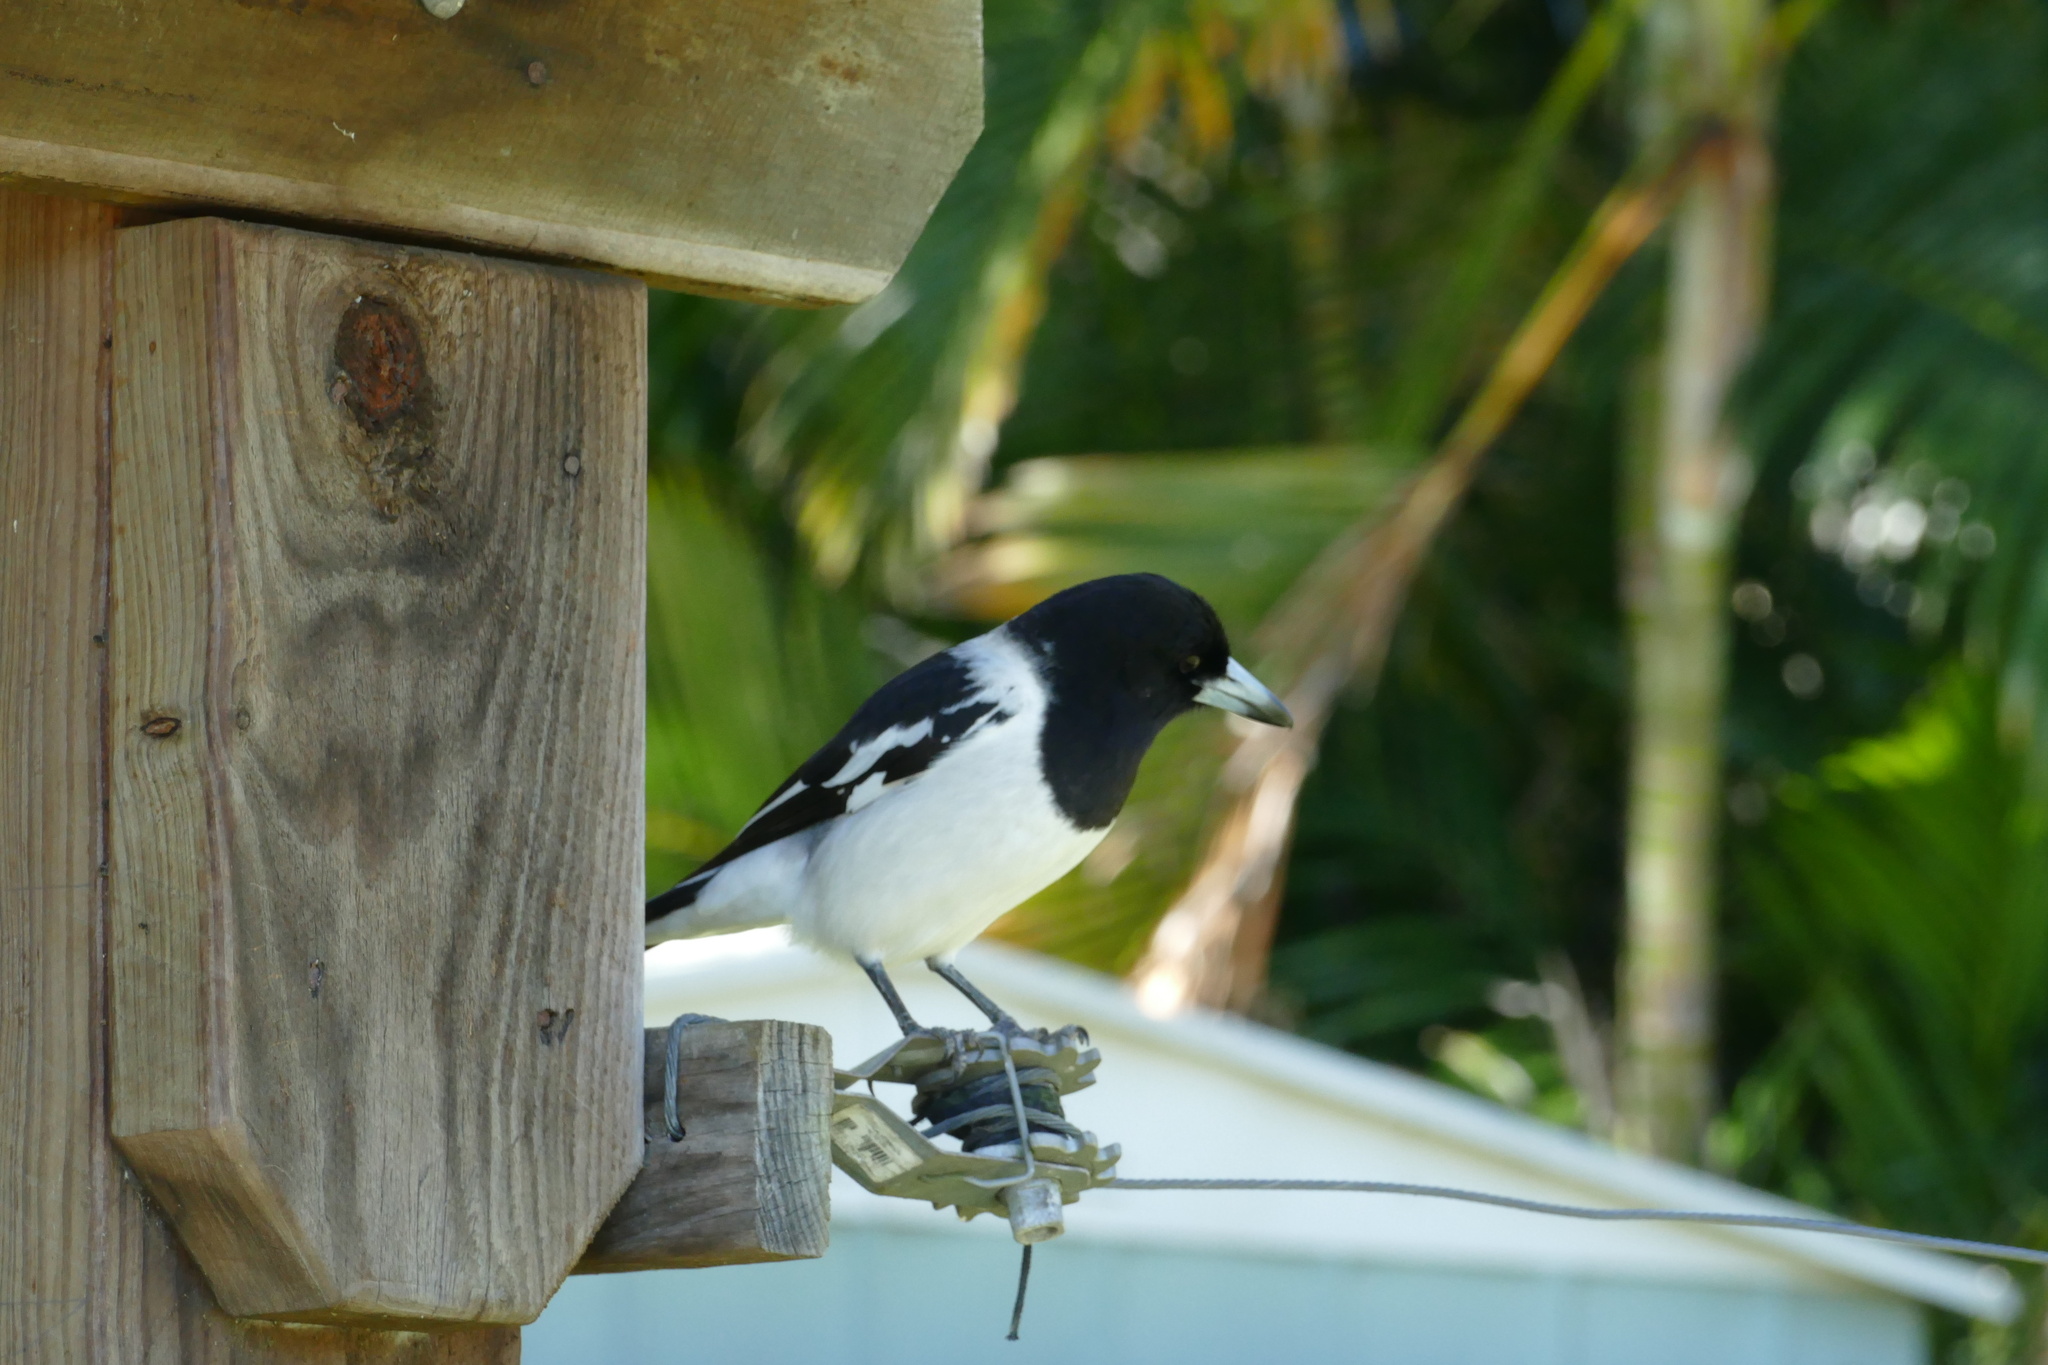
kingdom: Animalia
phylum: Chordata
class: Aves
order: Passeriformes
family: Cracticidae
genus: Cracticus
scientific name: Cracticus nigrogularis
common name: Pied butcherbird
